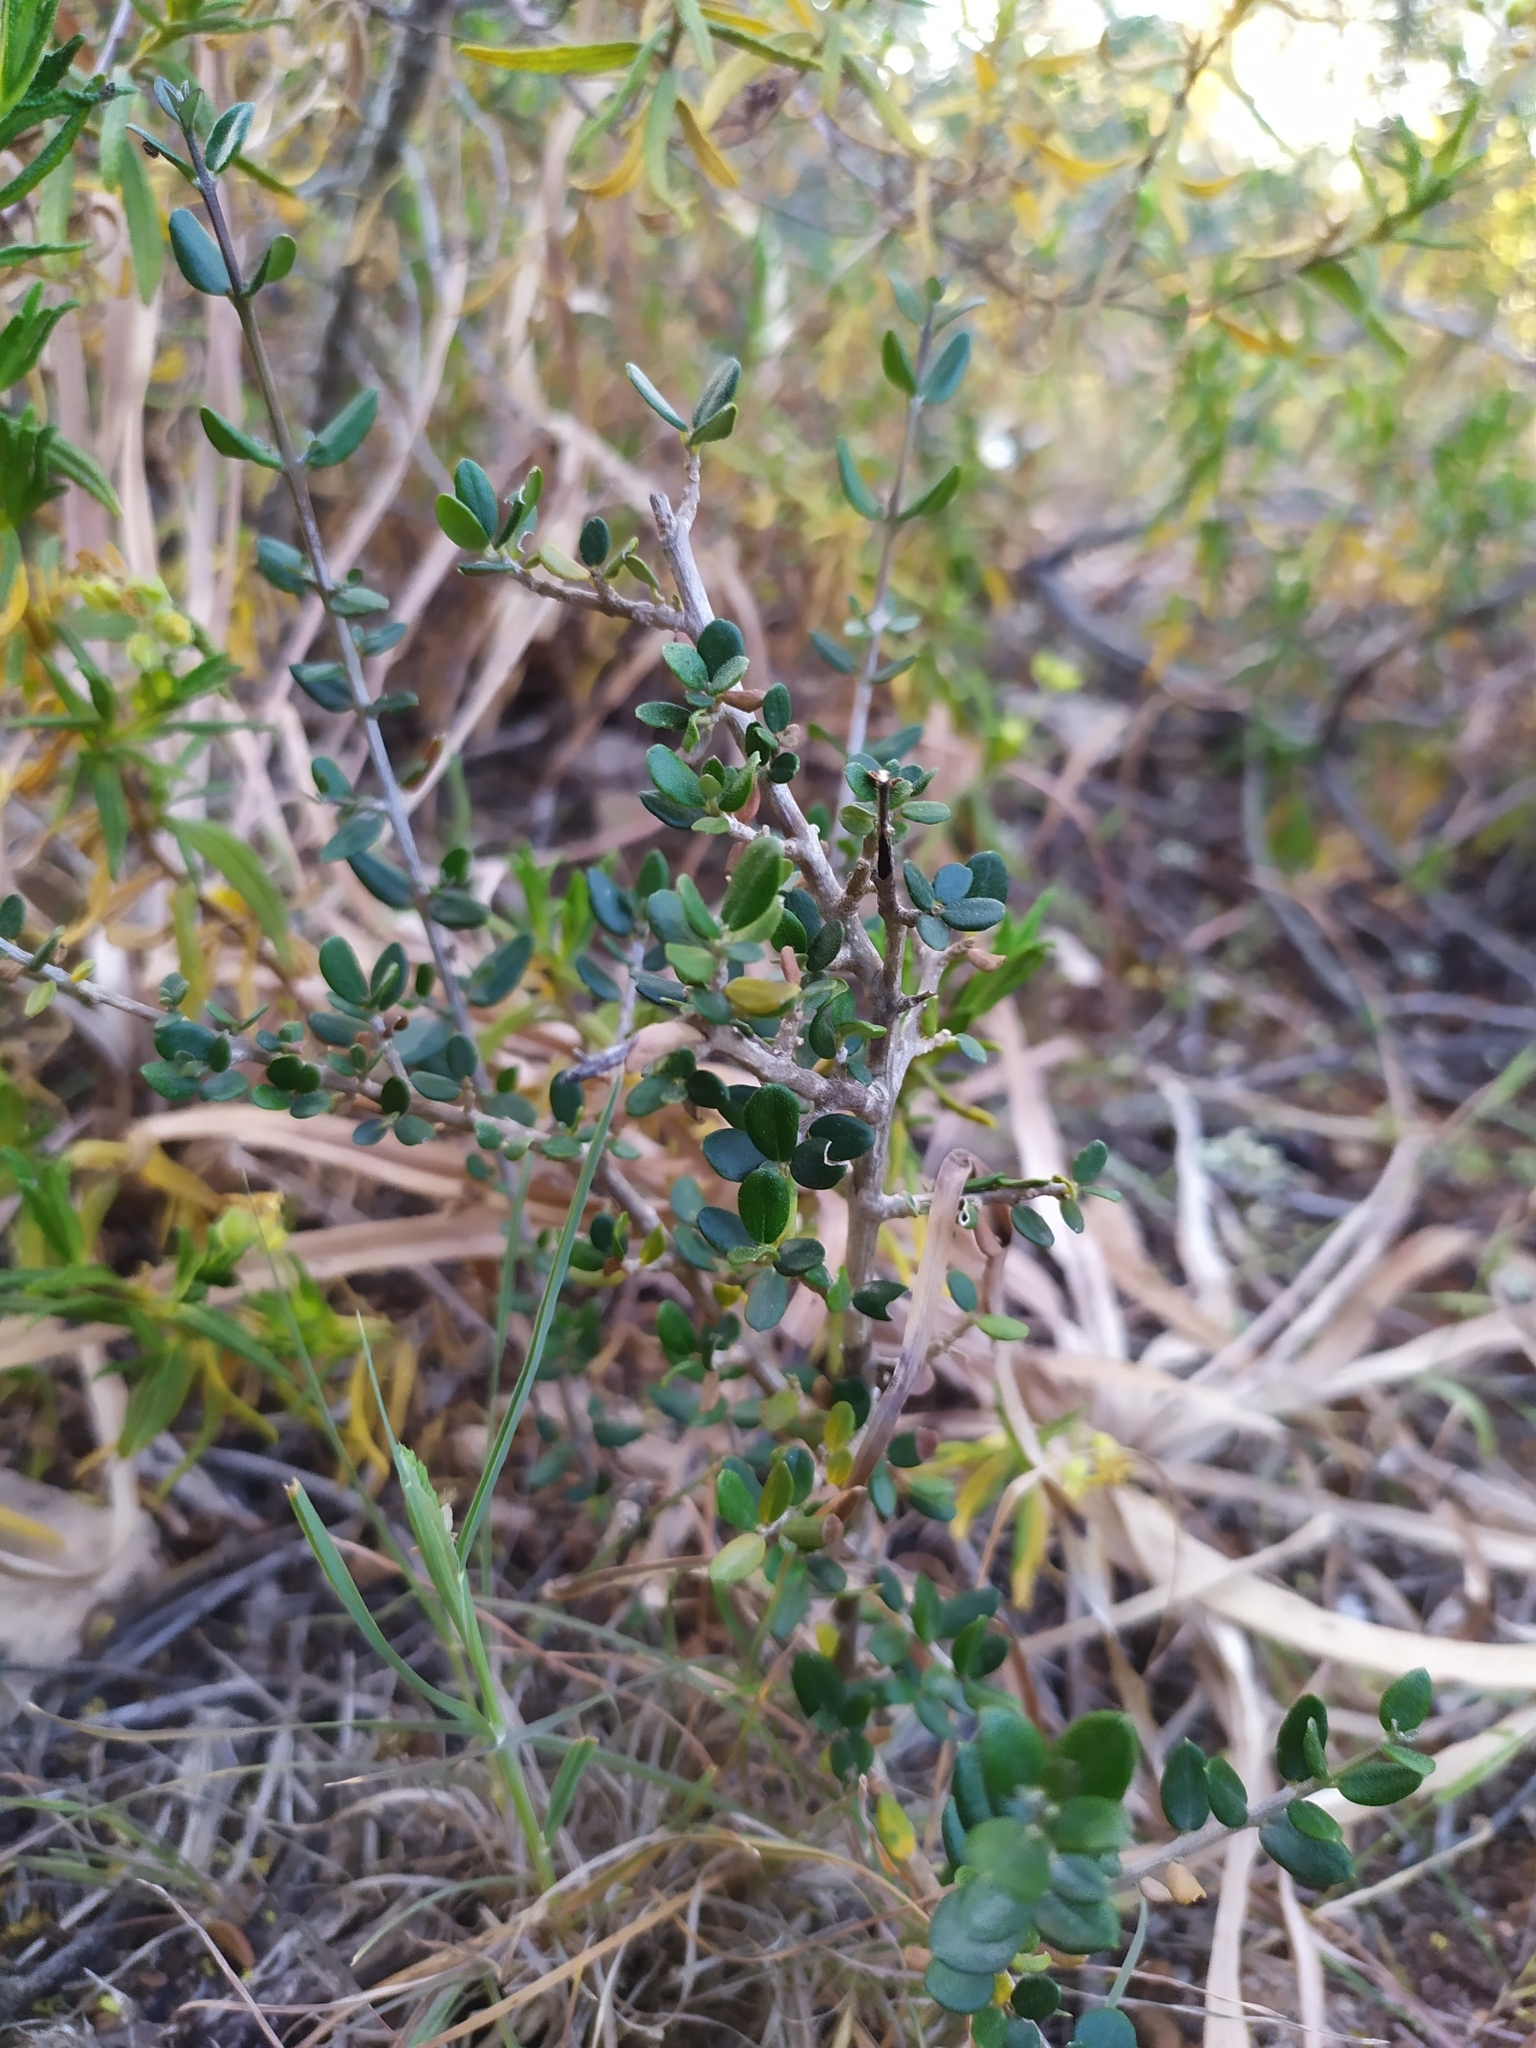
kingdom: Plantae
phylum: Tracheophyta
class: Magnoliopsida
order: Lamiales
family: Oleaceae
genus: Olea
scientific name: Olea europaea
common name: Olive
